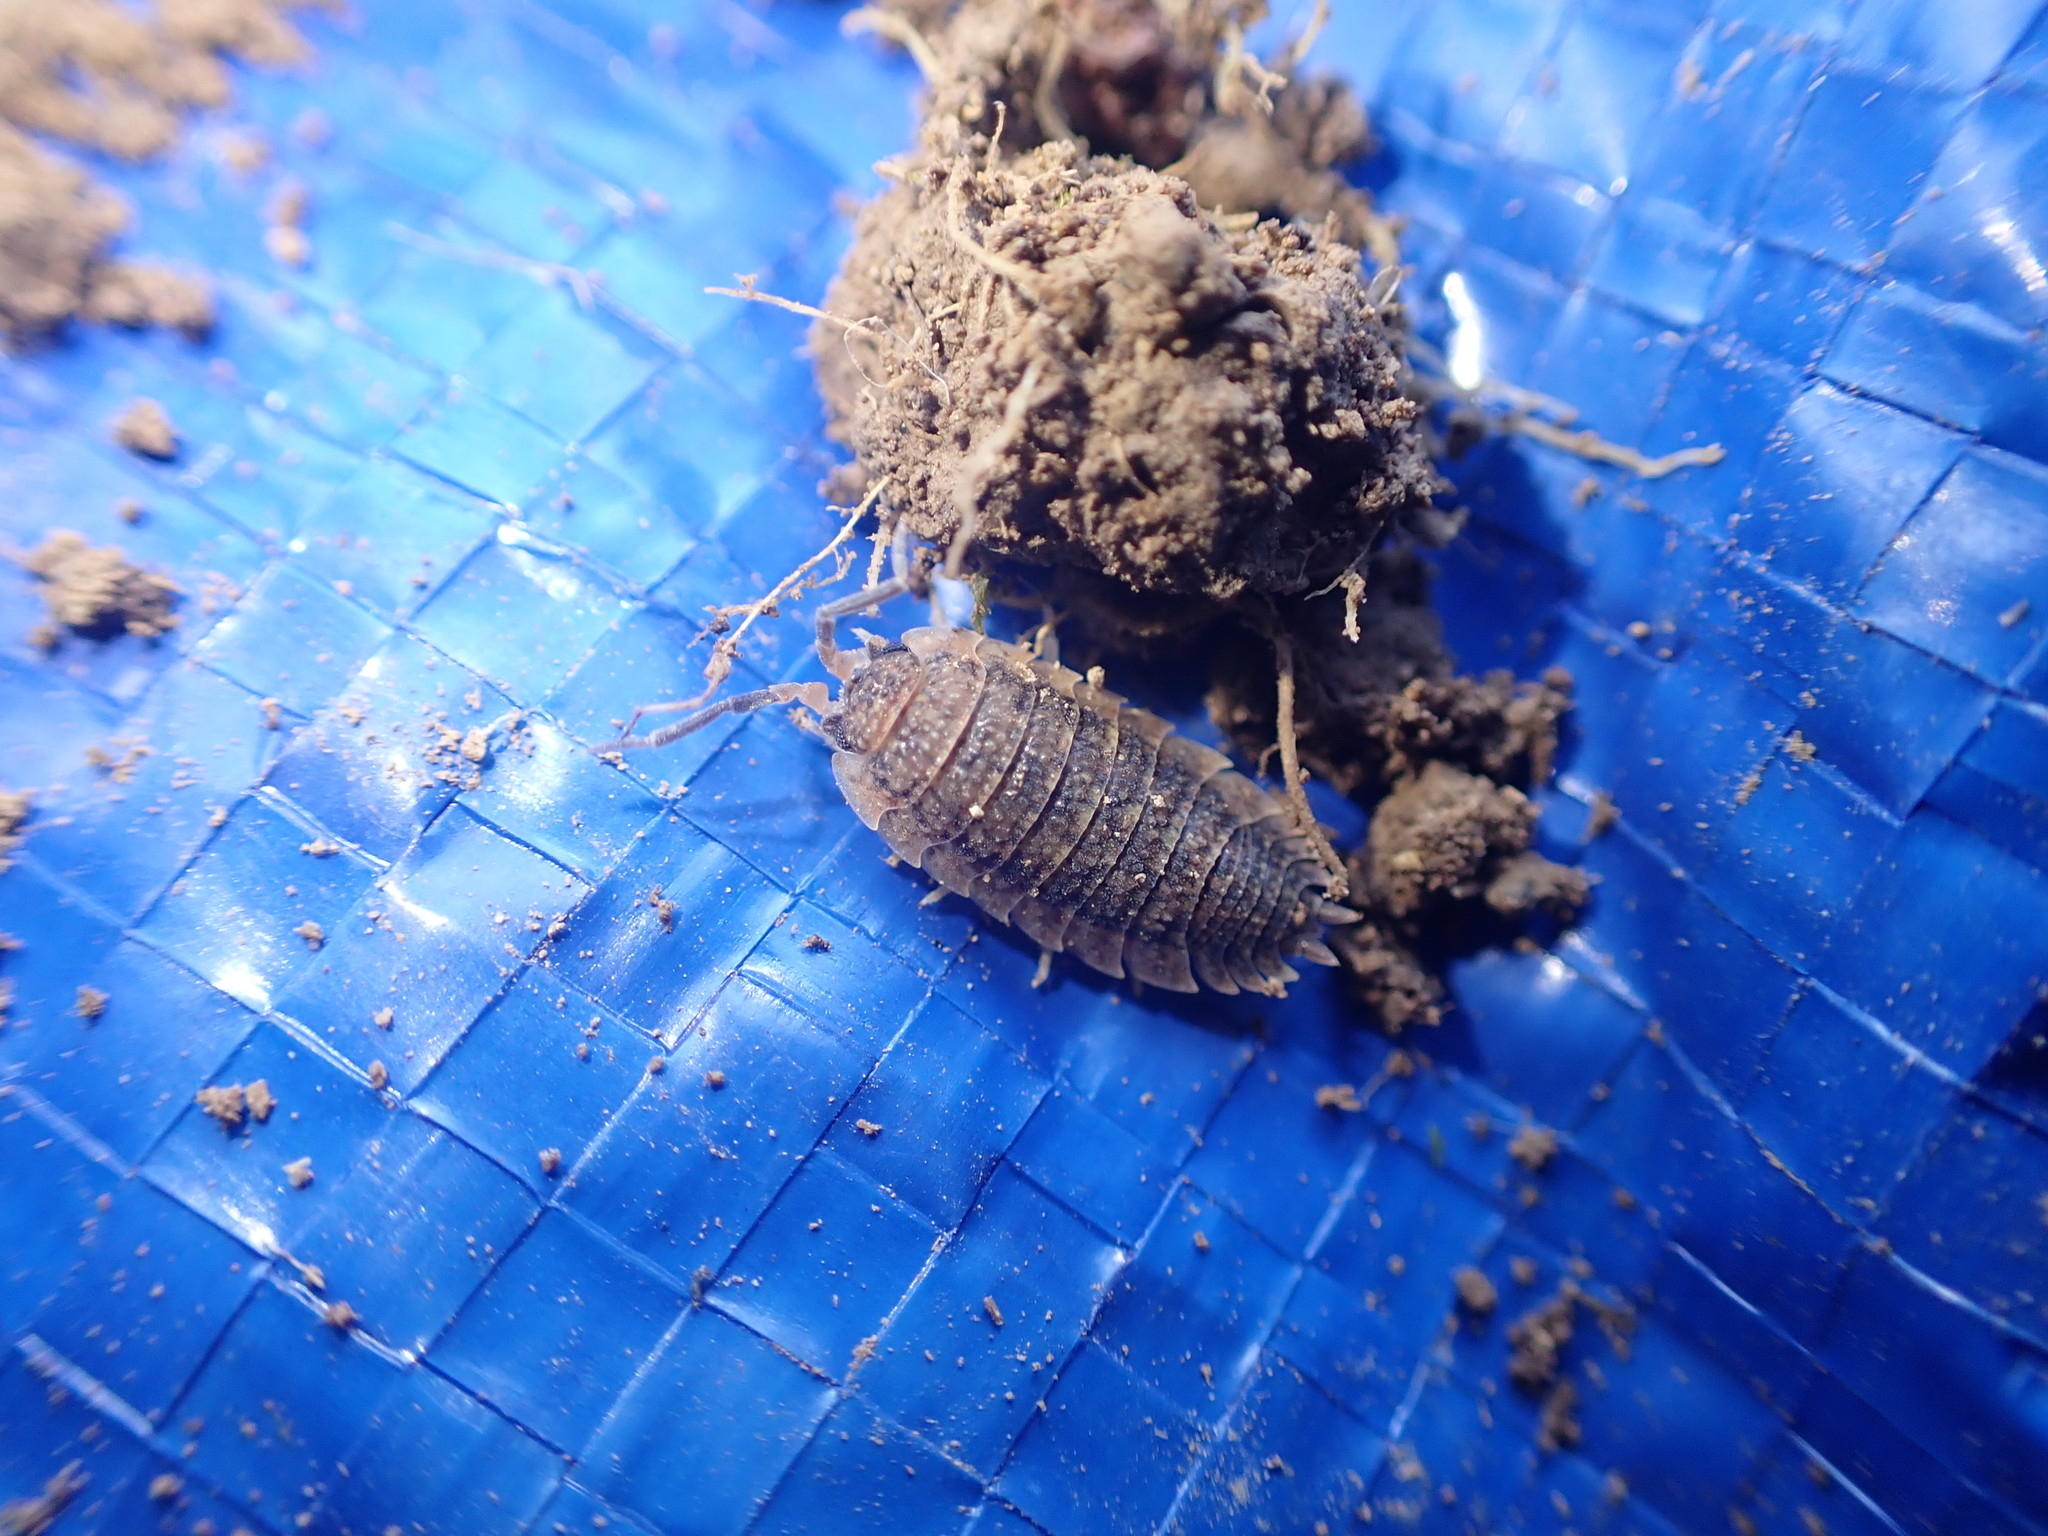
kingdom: Animalia
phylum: Arthropoda
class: Malacostraca
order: Isopoda
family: Porcellionidae
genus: Porcellio
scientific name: Porcellio scaber
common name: Common rough woodlouse
